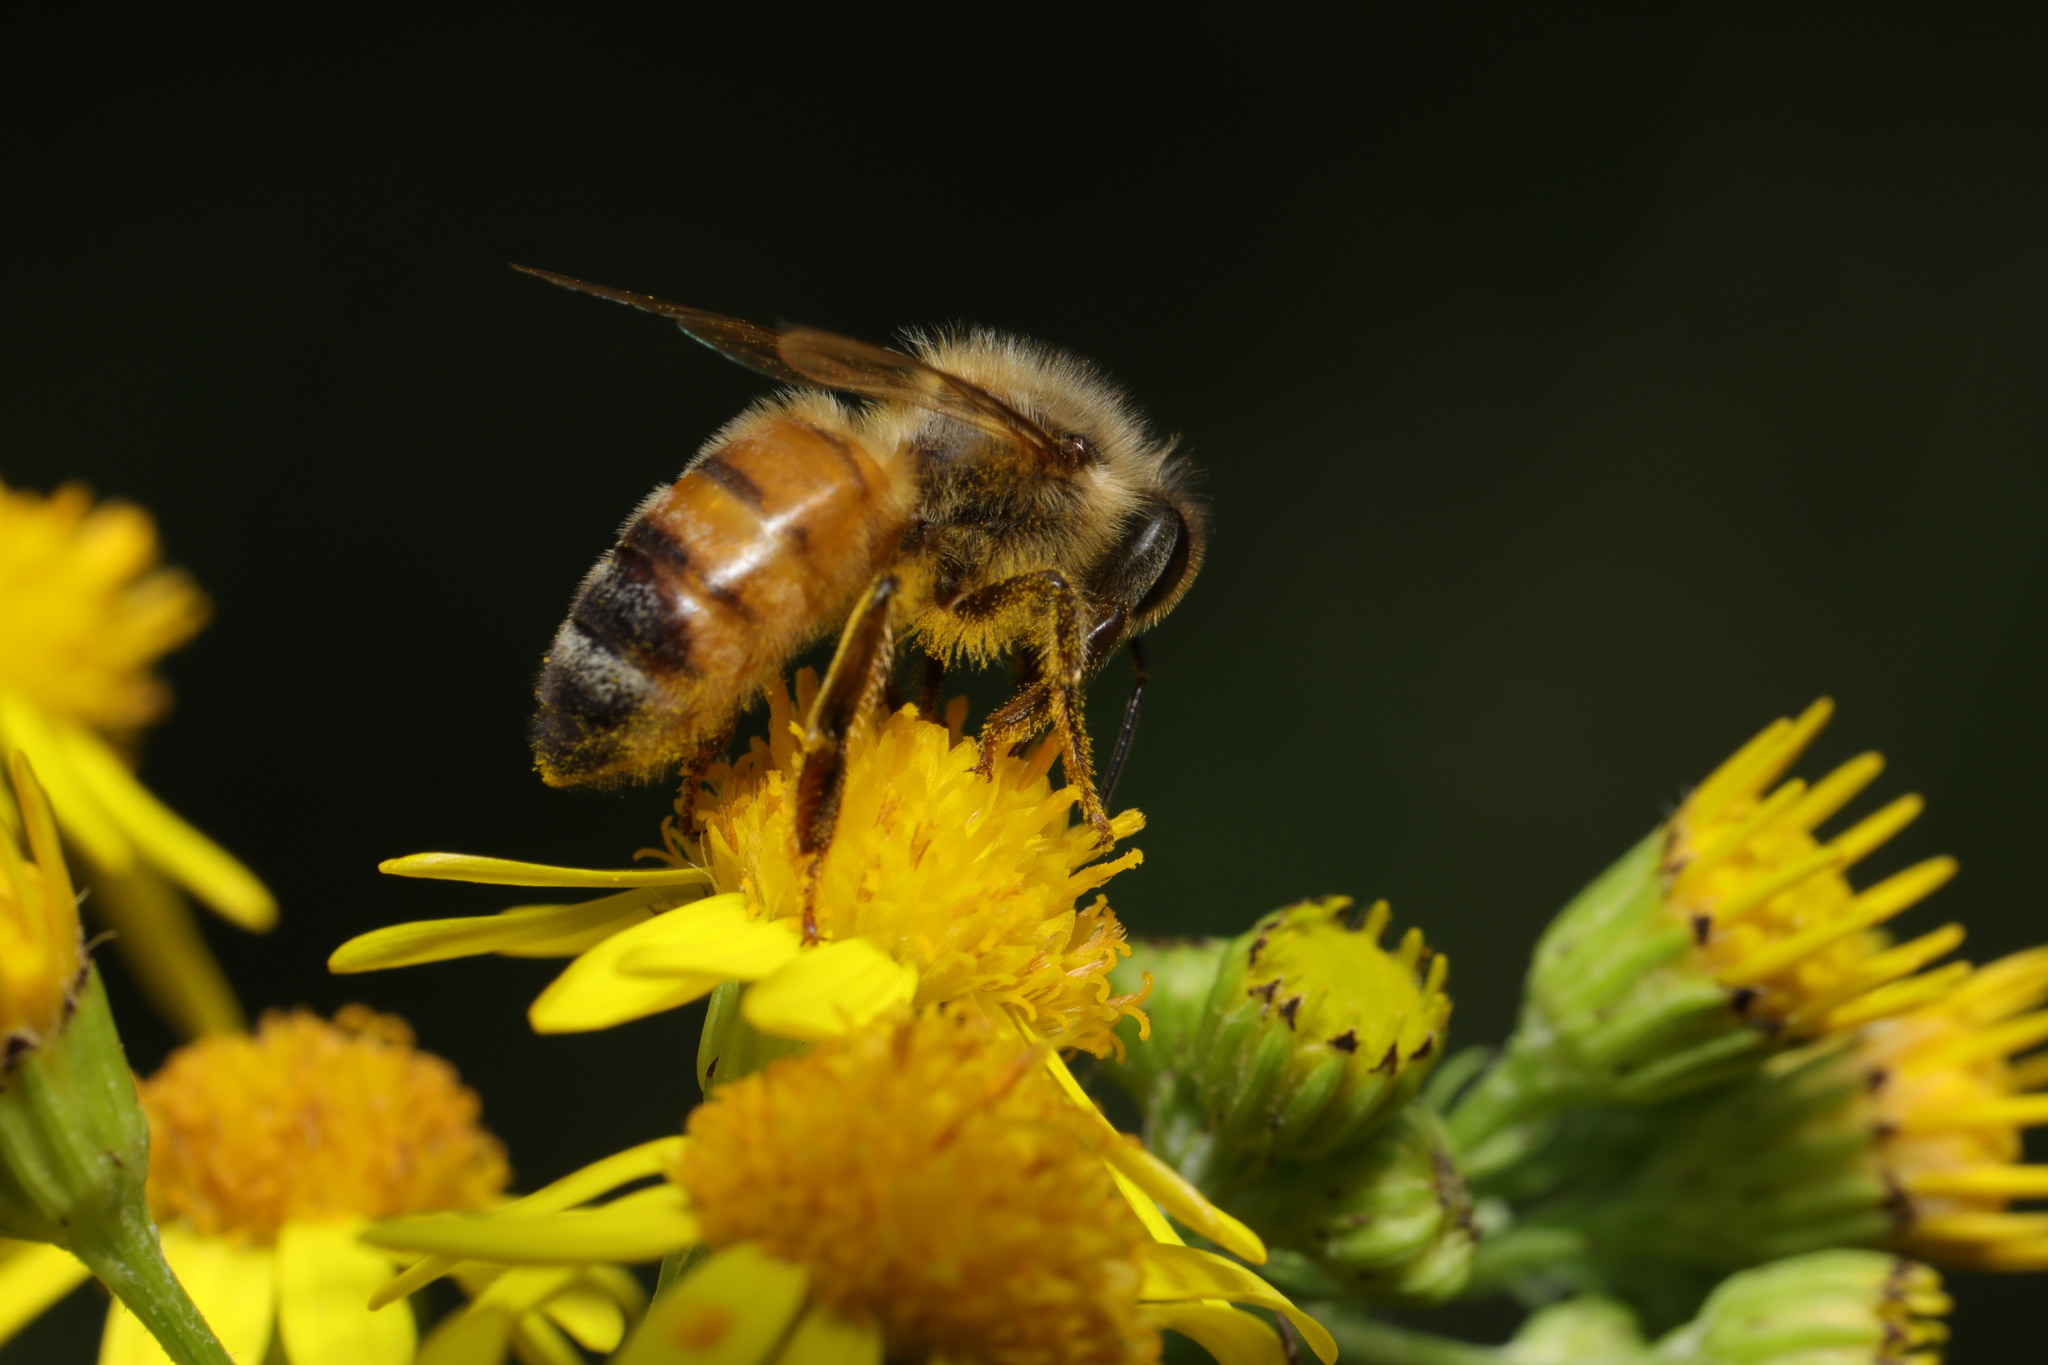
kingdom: Animalia
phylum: Arthropoda
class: Insecta
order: Hymenoptera
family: Apidae
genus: Apis
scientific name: Apis mellifera
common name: Honey bee
